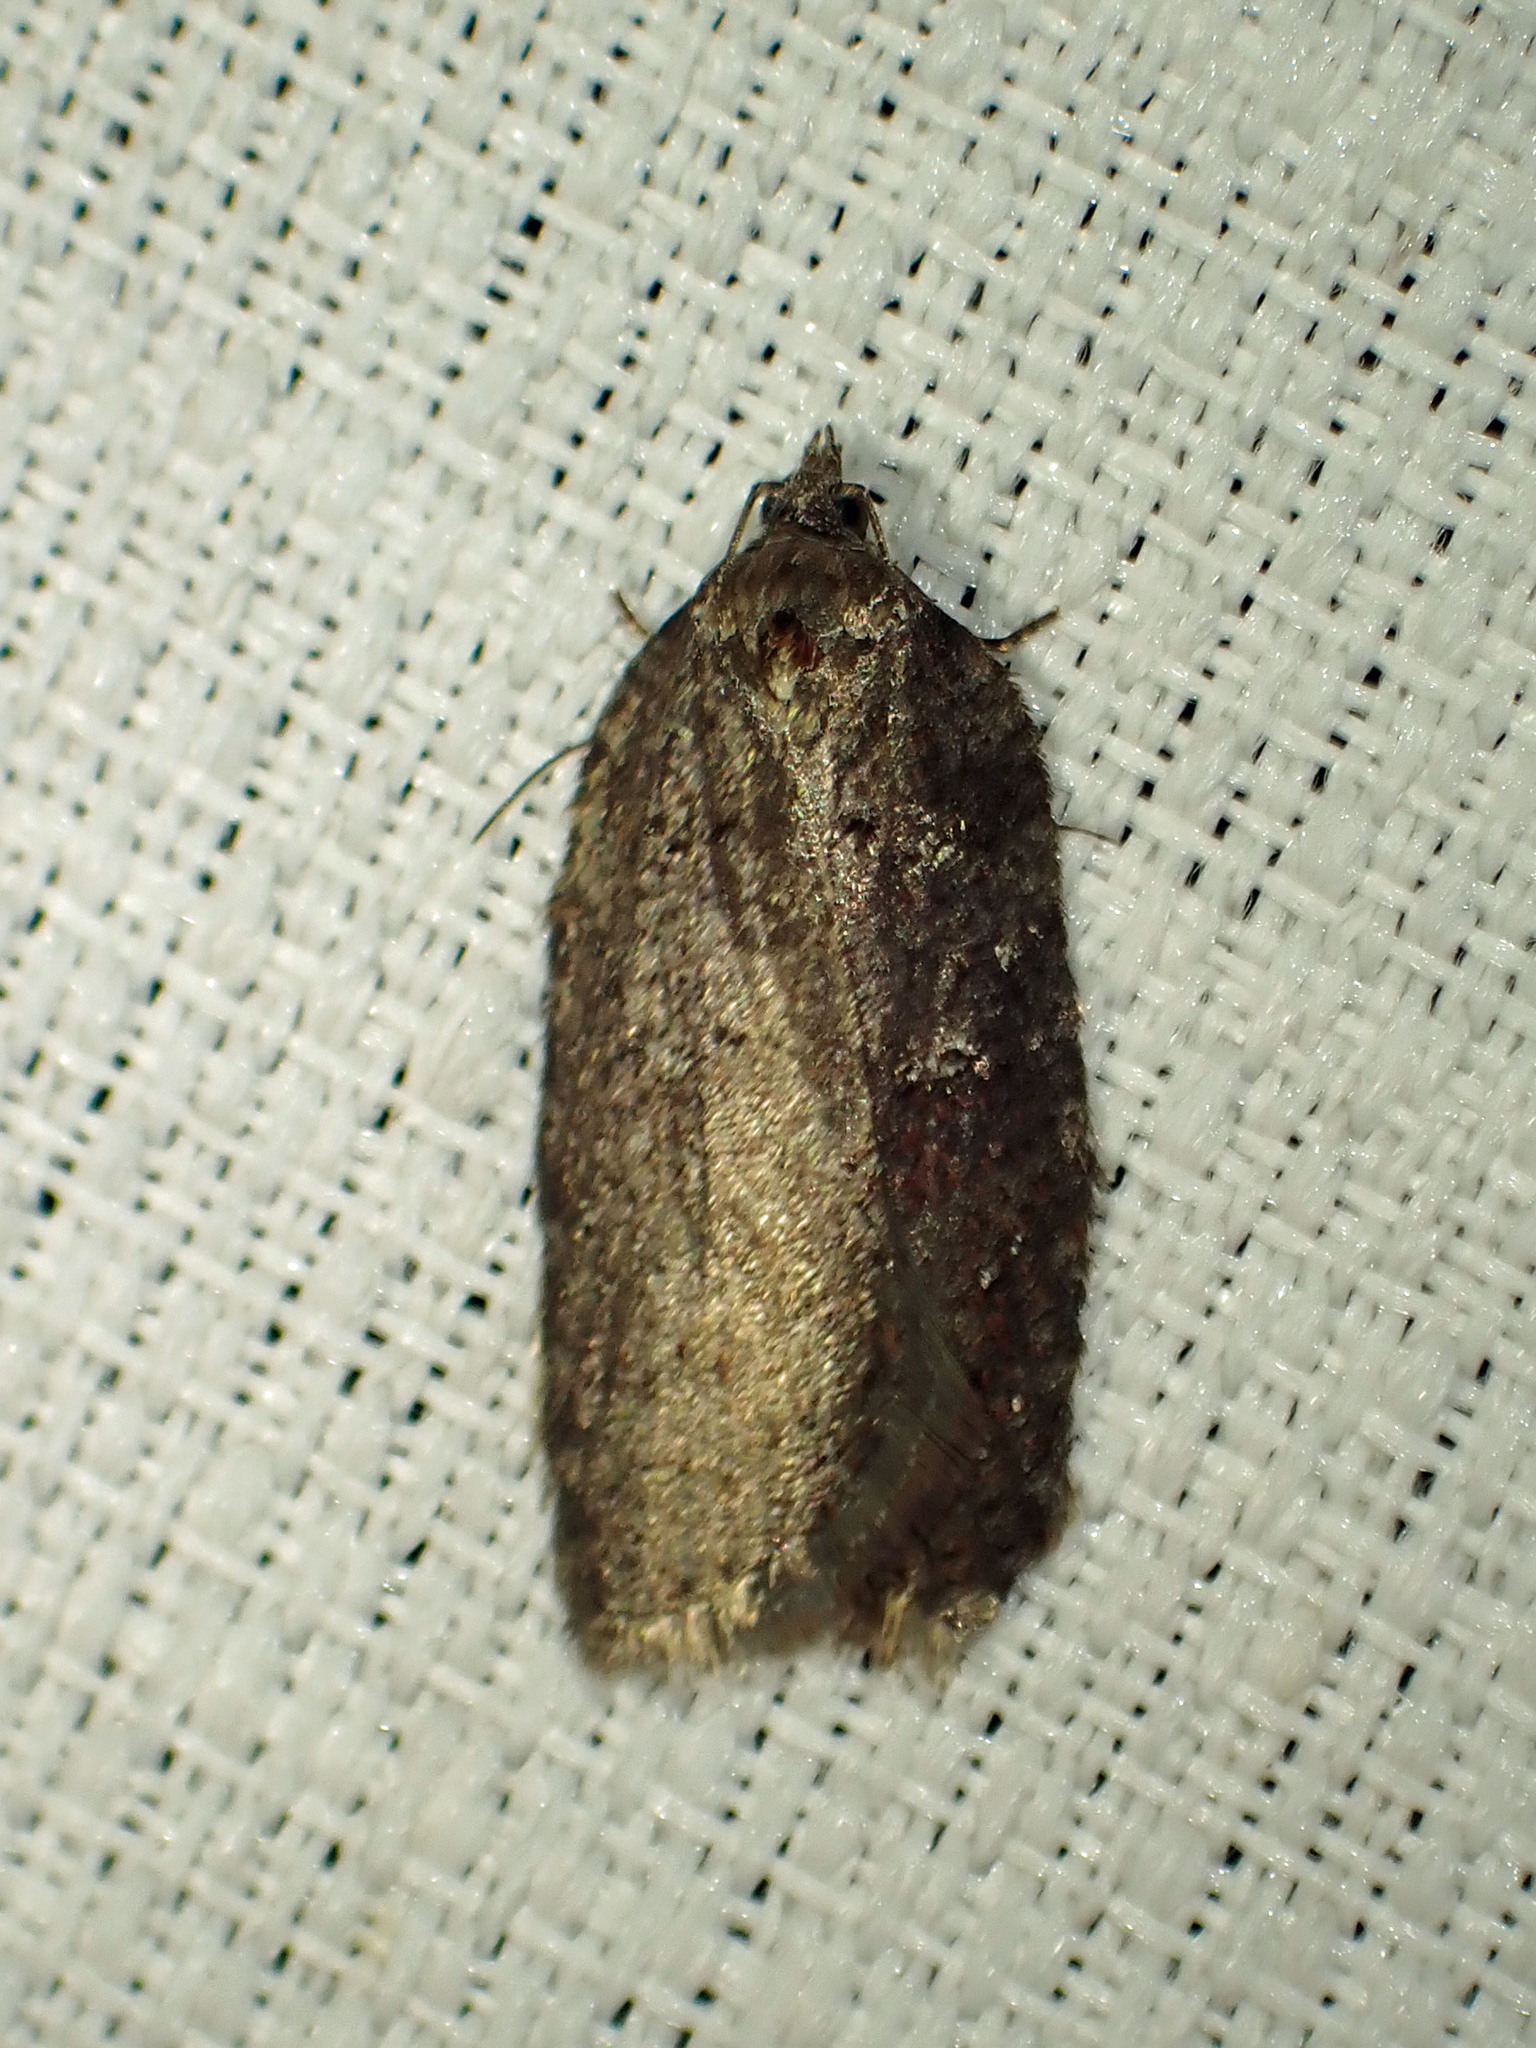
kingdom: Animalia
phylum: Arthropoda
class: Insecta
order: Lepidoptera
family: Tortricidae
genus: Acleris
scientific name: Acleris caliginosana
